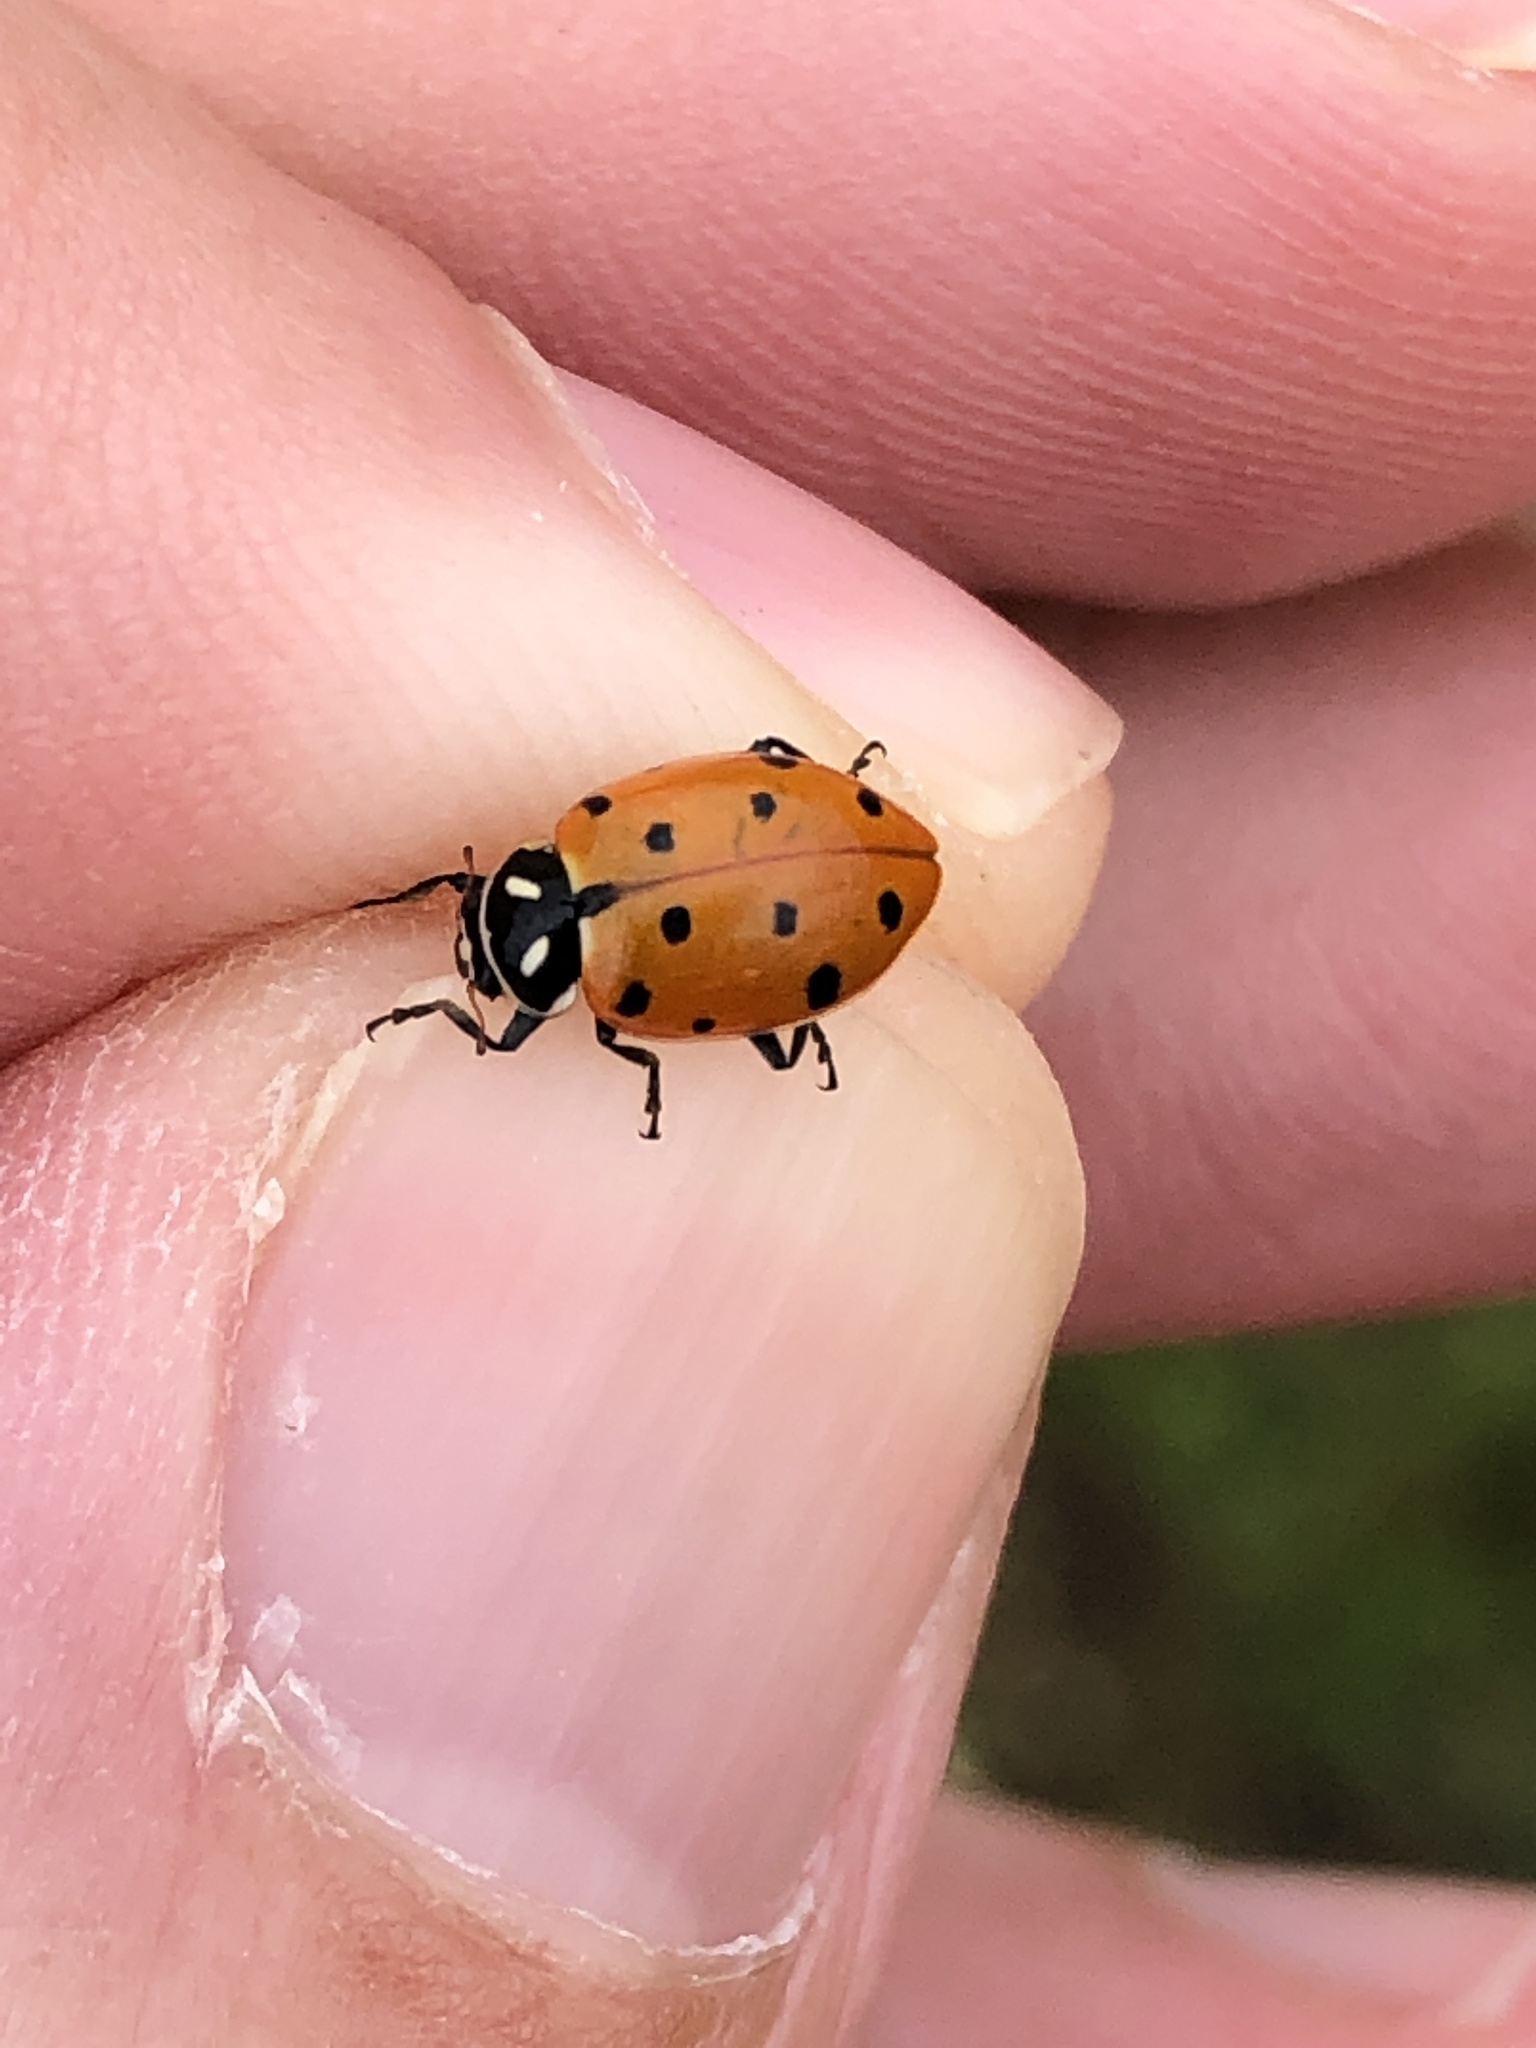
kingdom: Animalia
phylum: Arthropoda
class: Insecta
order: Coleoptera
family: Coccinellidae
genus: Hippodamia
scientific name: Hippodamia convergens
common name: Convergent lady beetle
